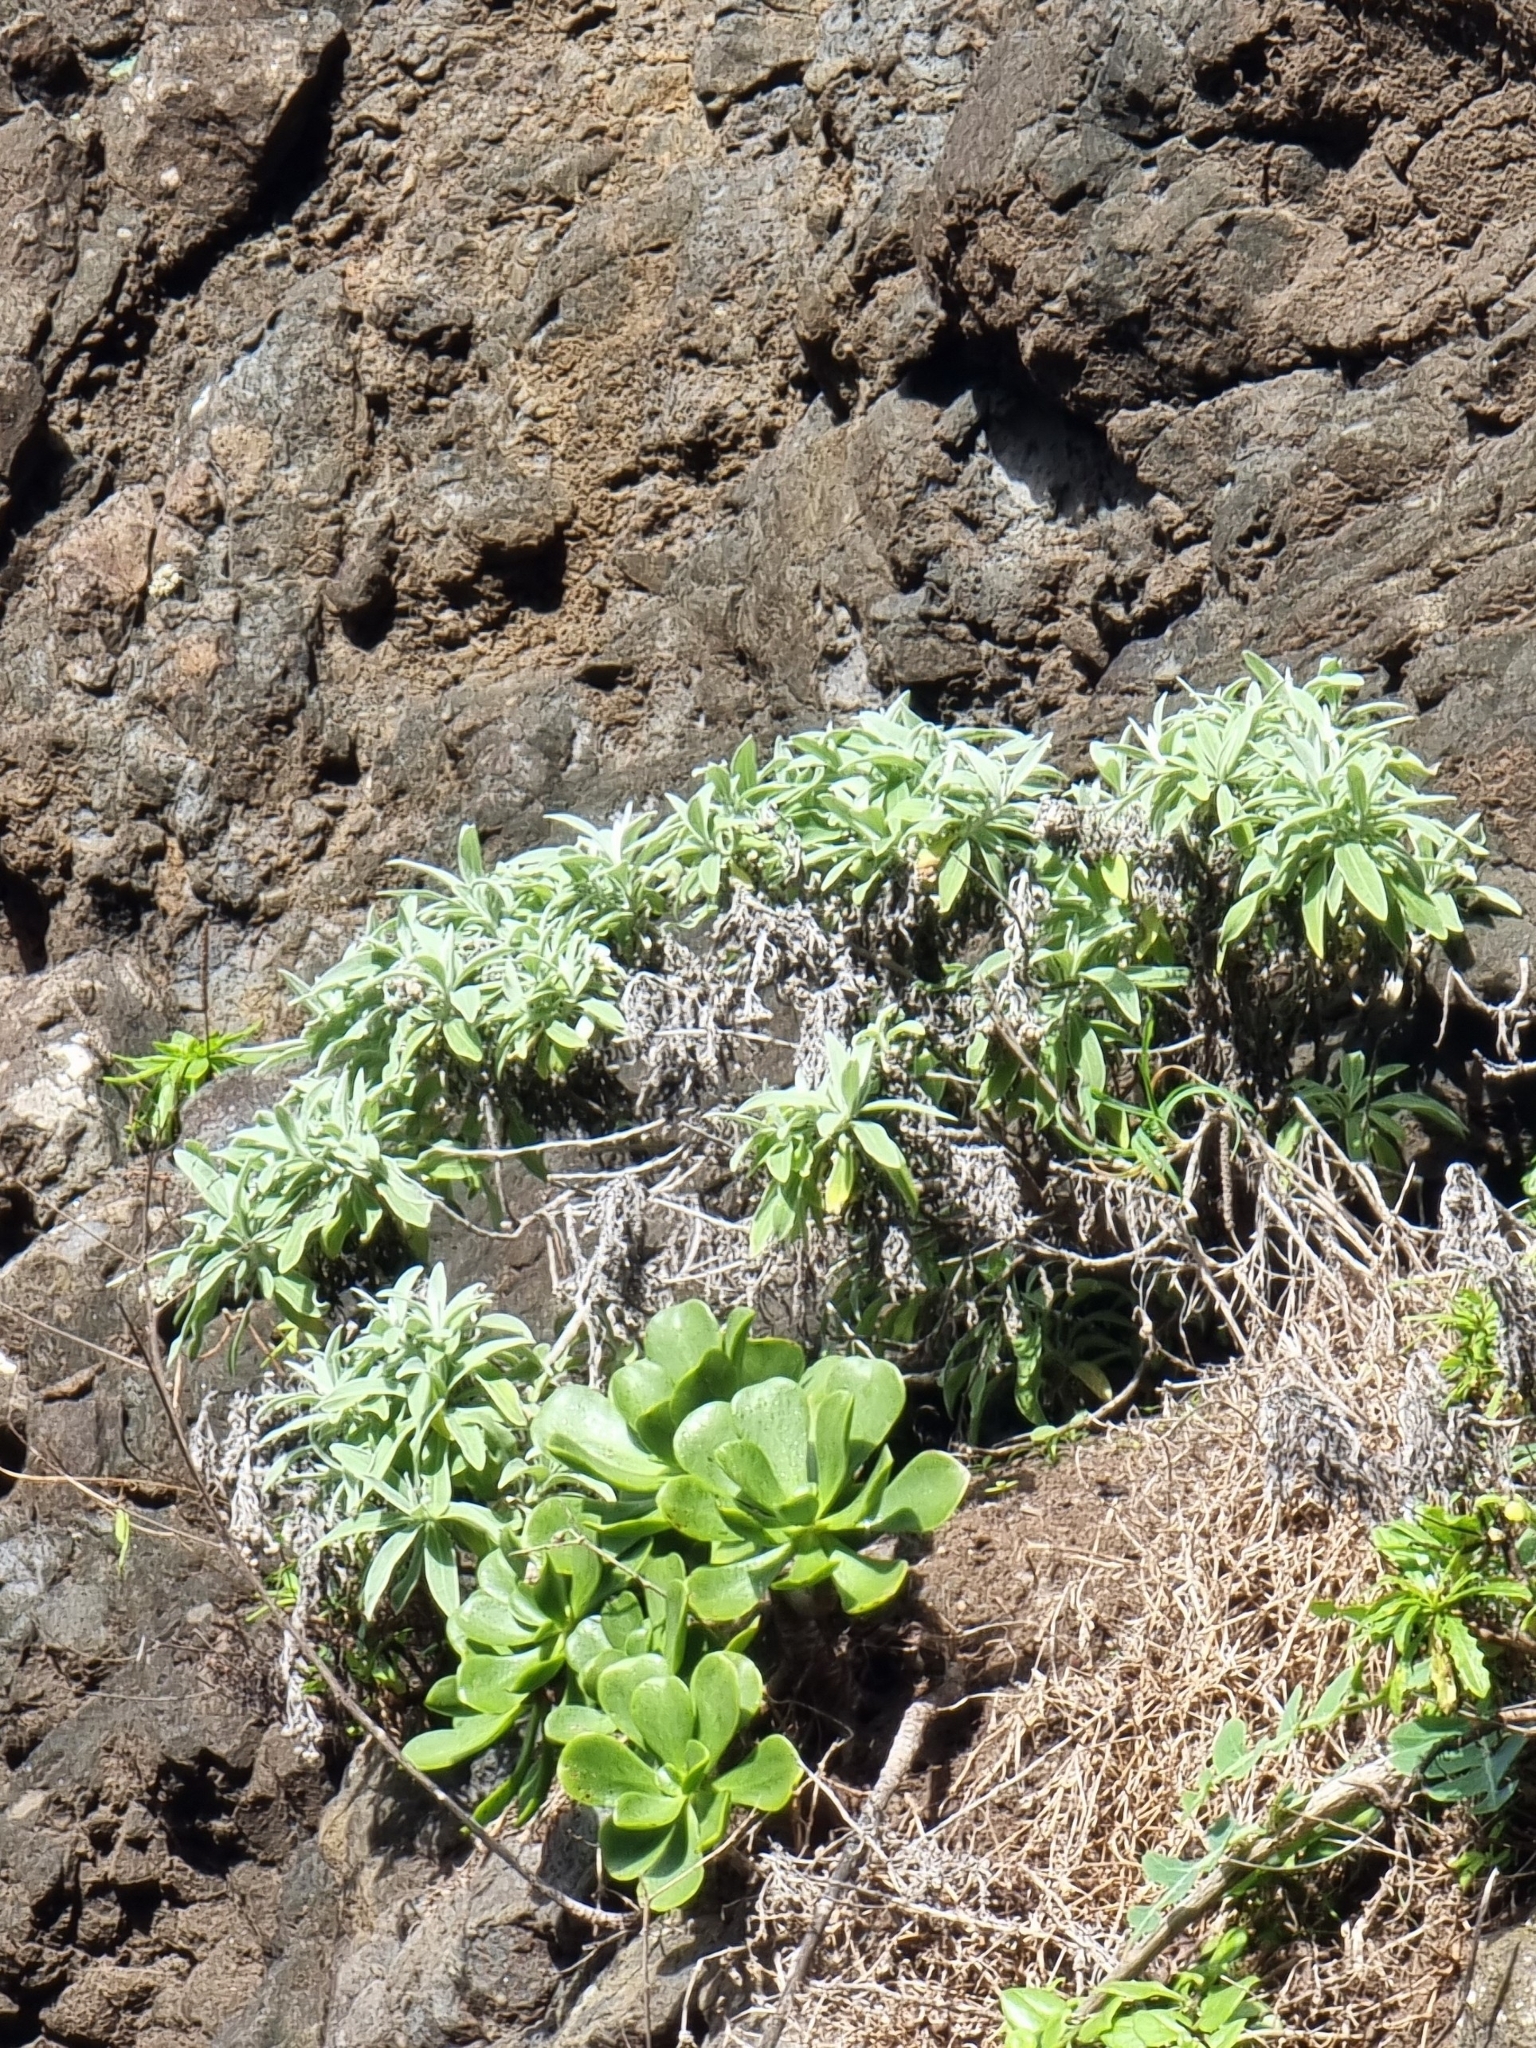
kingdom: Plantae
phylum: Tracheophyta
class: Magnoliopsida
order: Asterales
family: Asteraceae
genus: Helichrysum
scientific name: Helichrysum melaleucum
